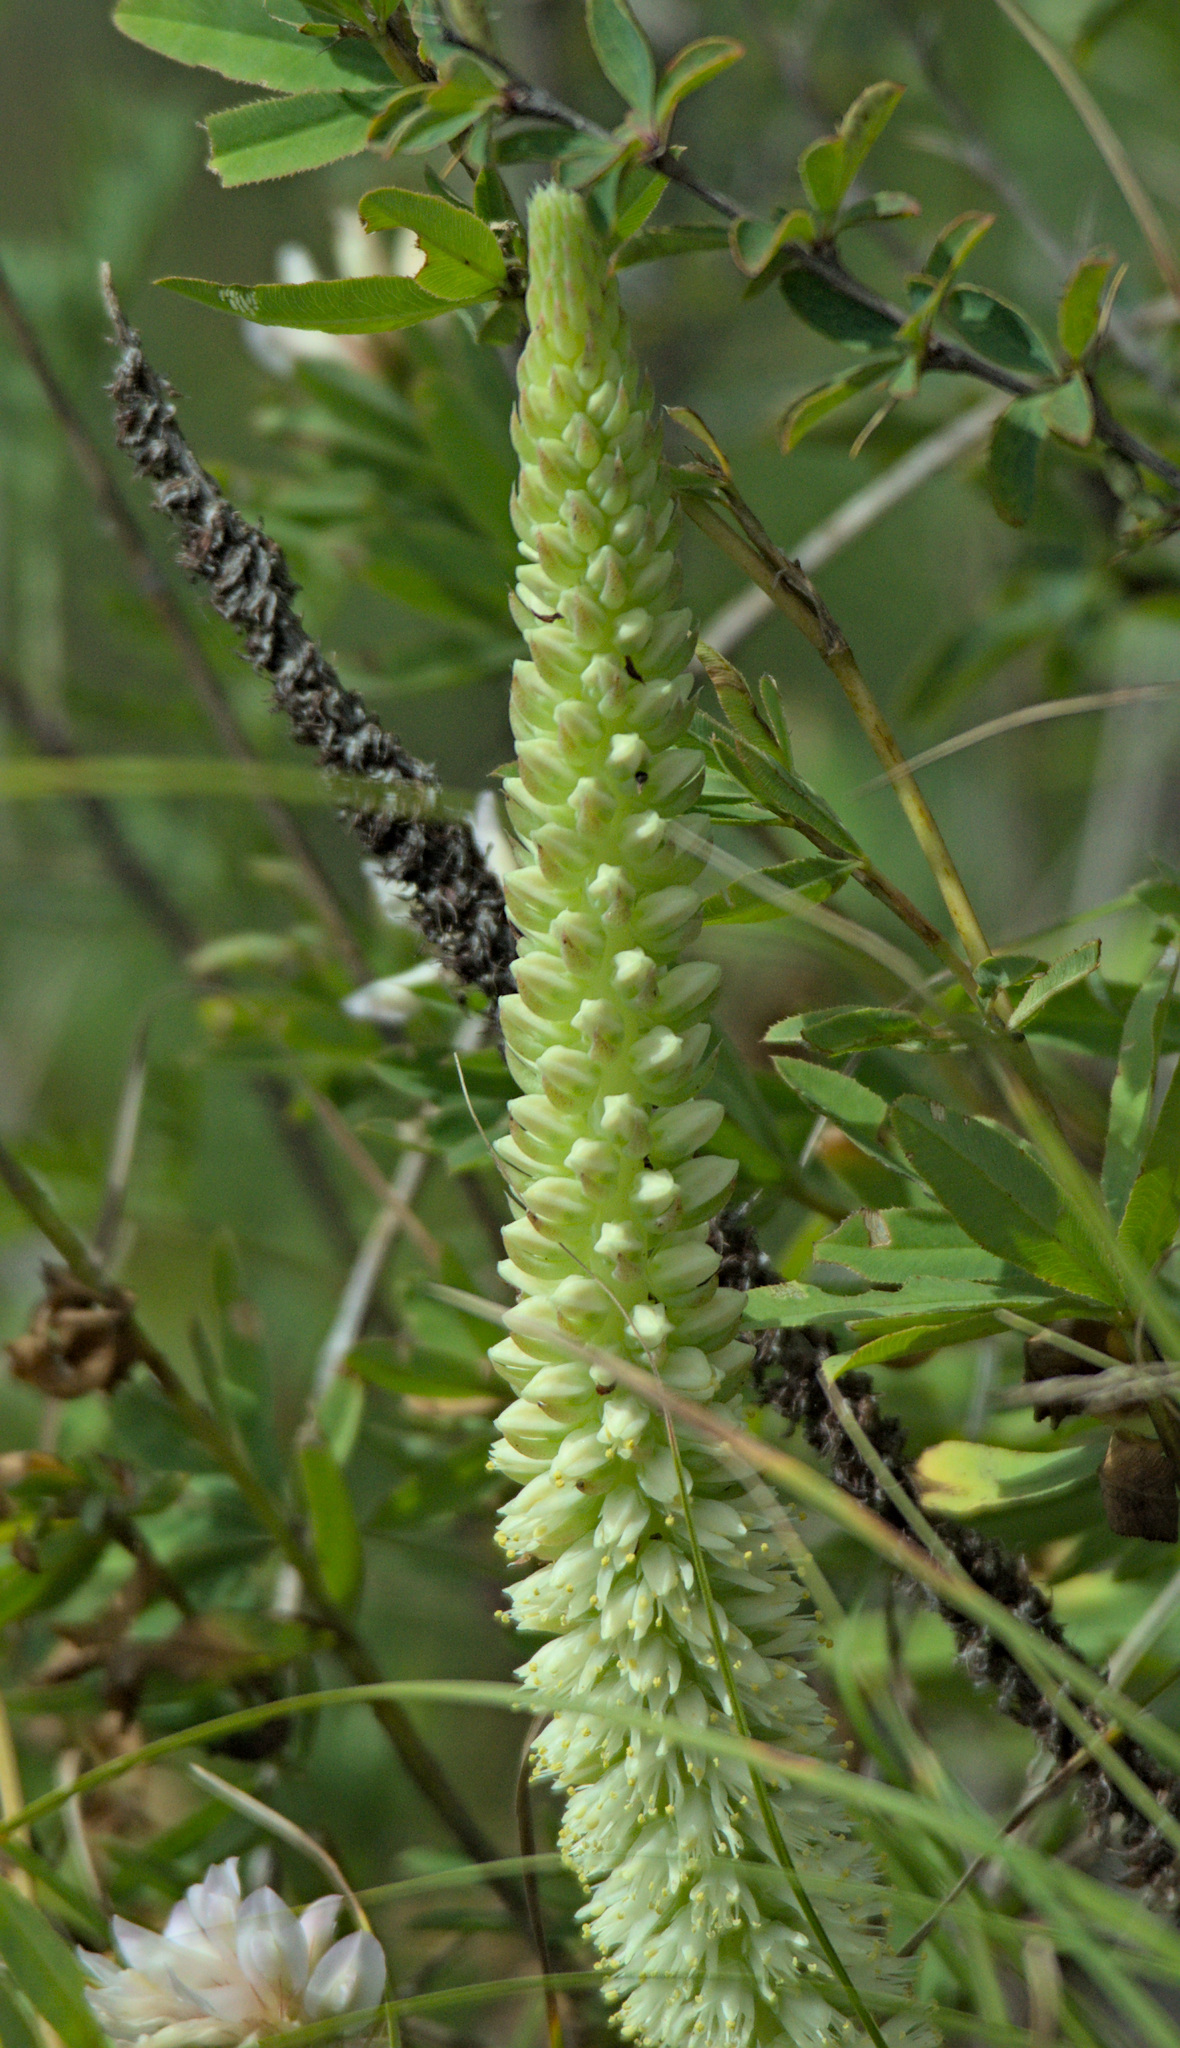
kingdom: Plantae
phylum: Tracheophyta
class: Magnoliopsida
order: Saxifragales
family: Crassulaceae
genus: Orostachys
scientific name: Orostachys spinosa
